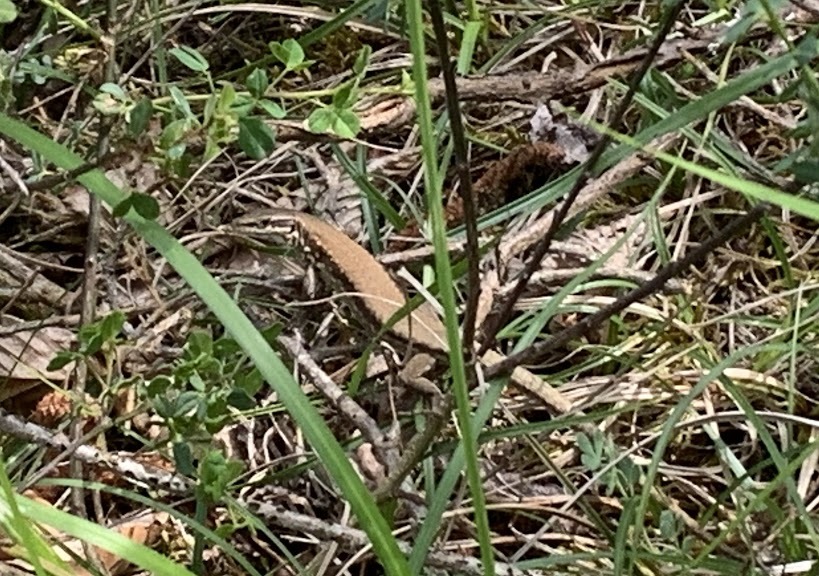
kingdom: Animalia
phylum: Chordata
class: Squamata
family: Lacertidae
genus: Podarcis
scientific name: Podarcis muralis
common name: Common wall lizard
